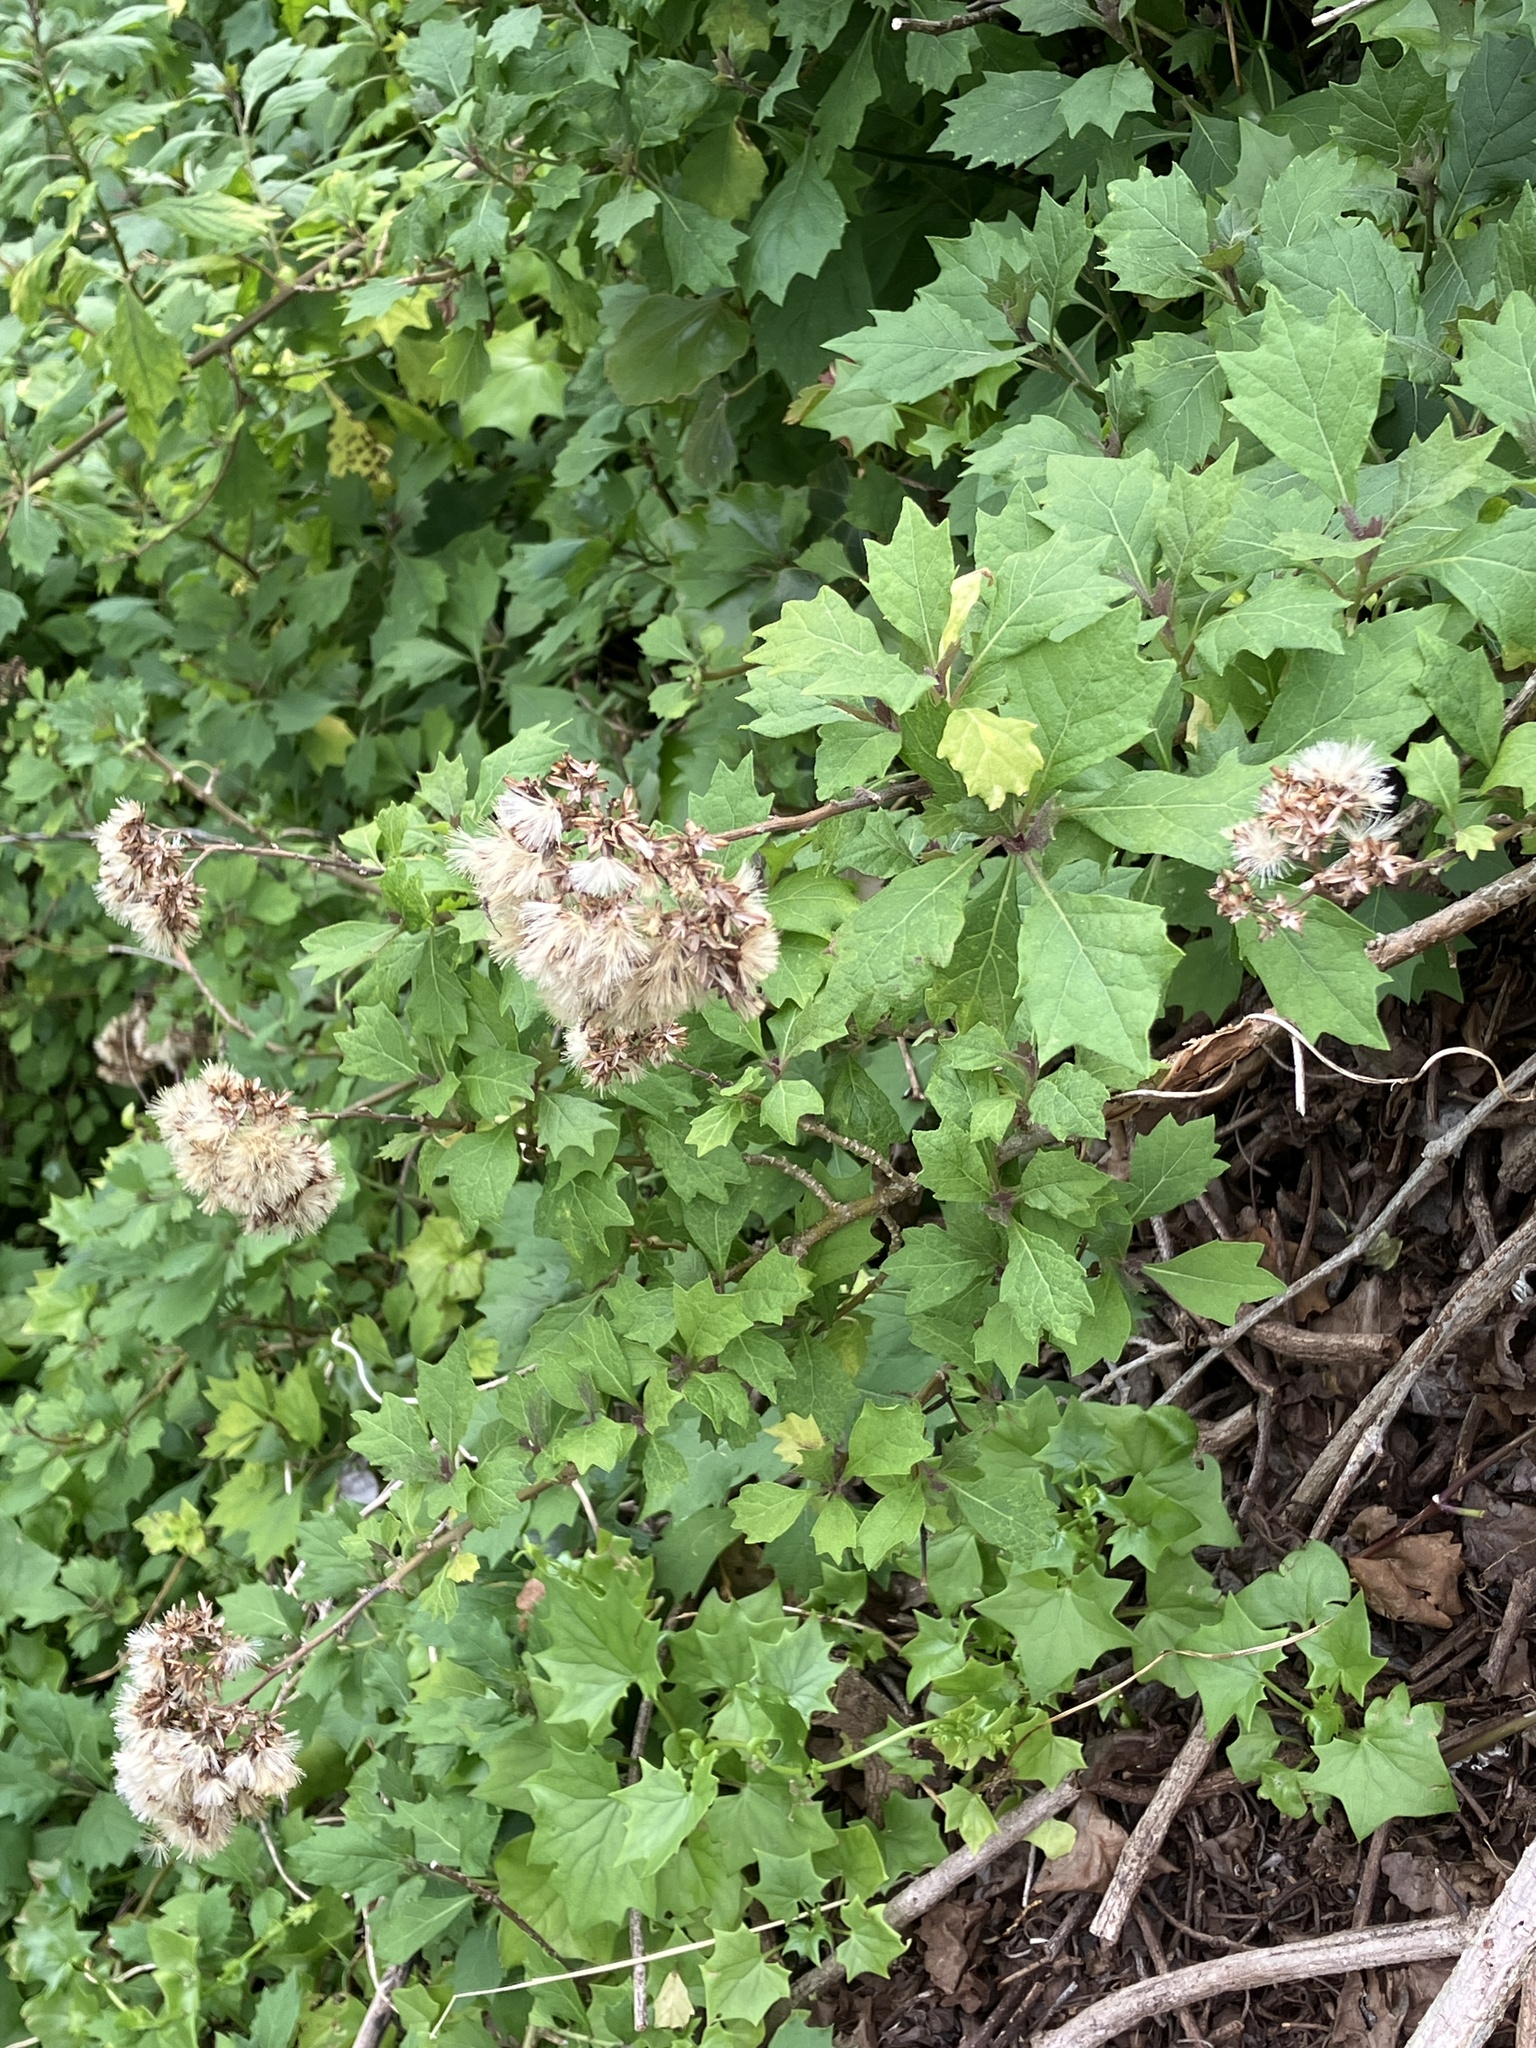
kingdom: Plantae
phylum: Tracheophyta
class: Magnoliopsida
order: Asterales
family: Asteraceae
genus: Gymnanthemum
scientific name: Gymnanthemum capense
